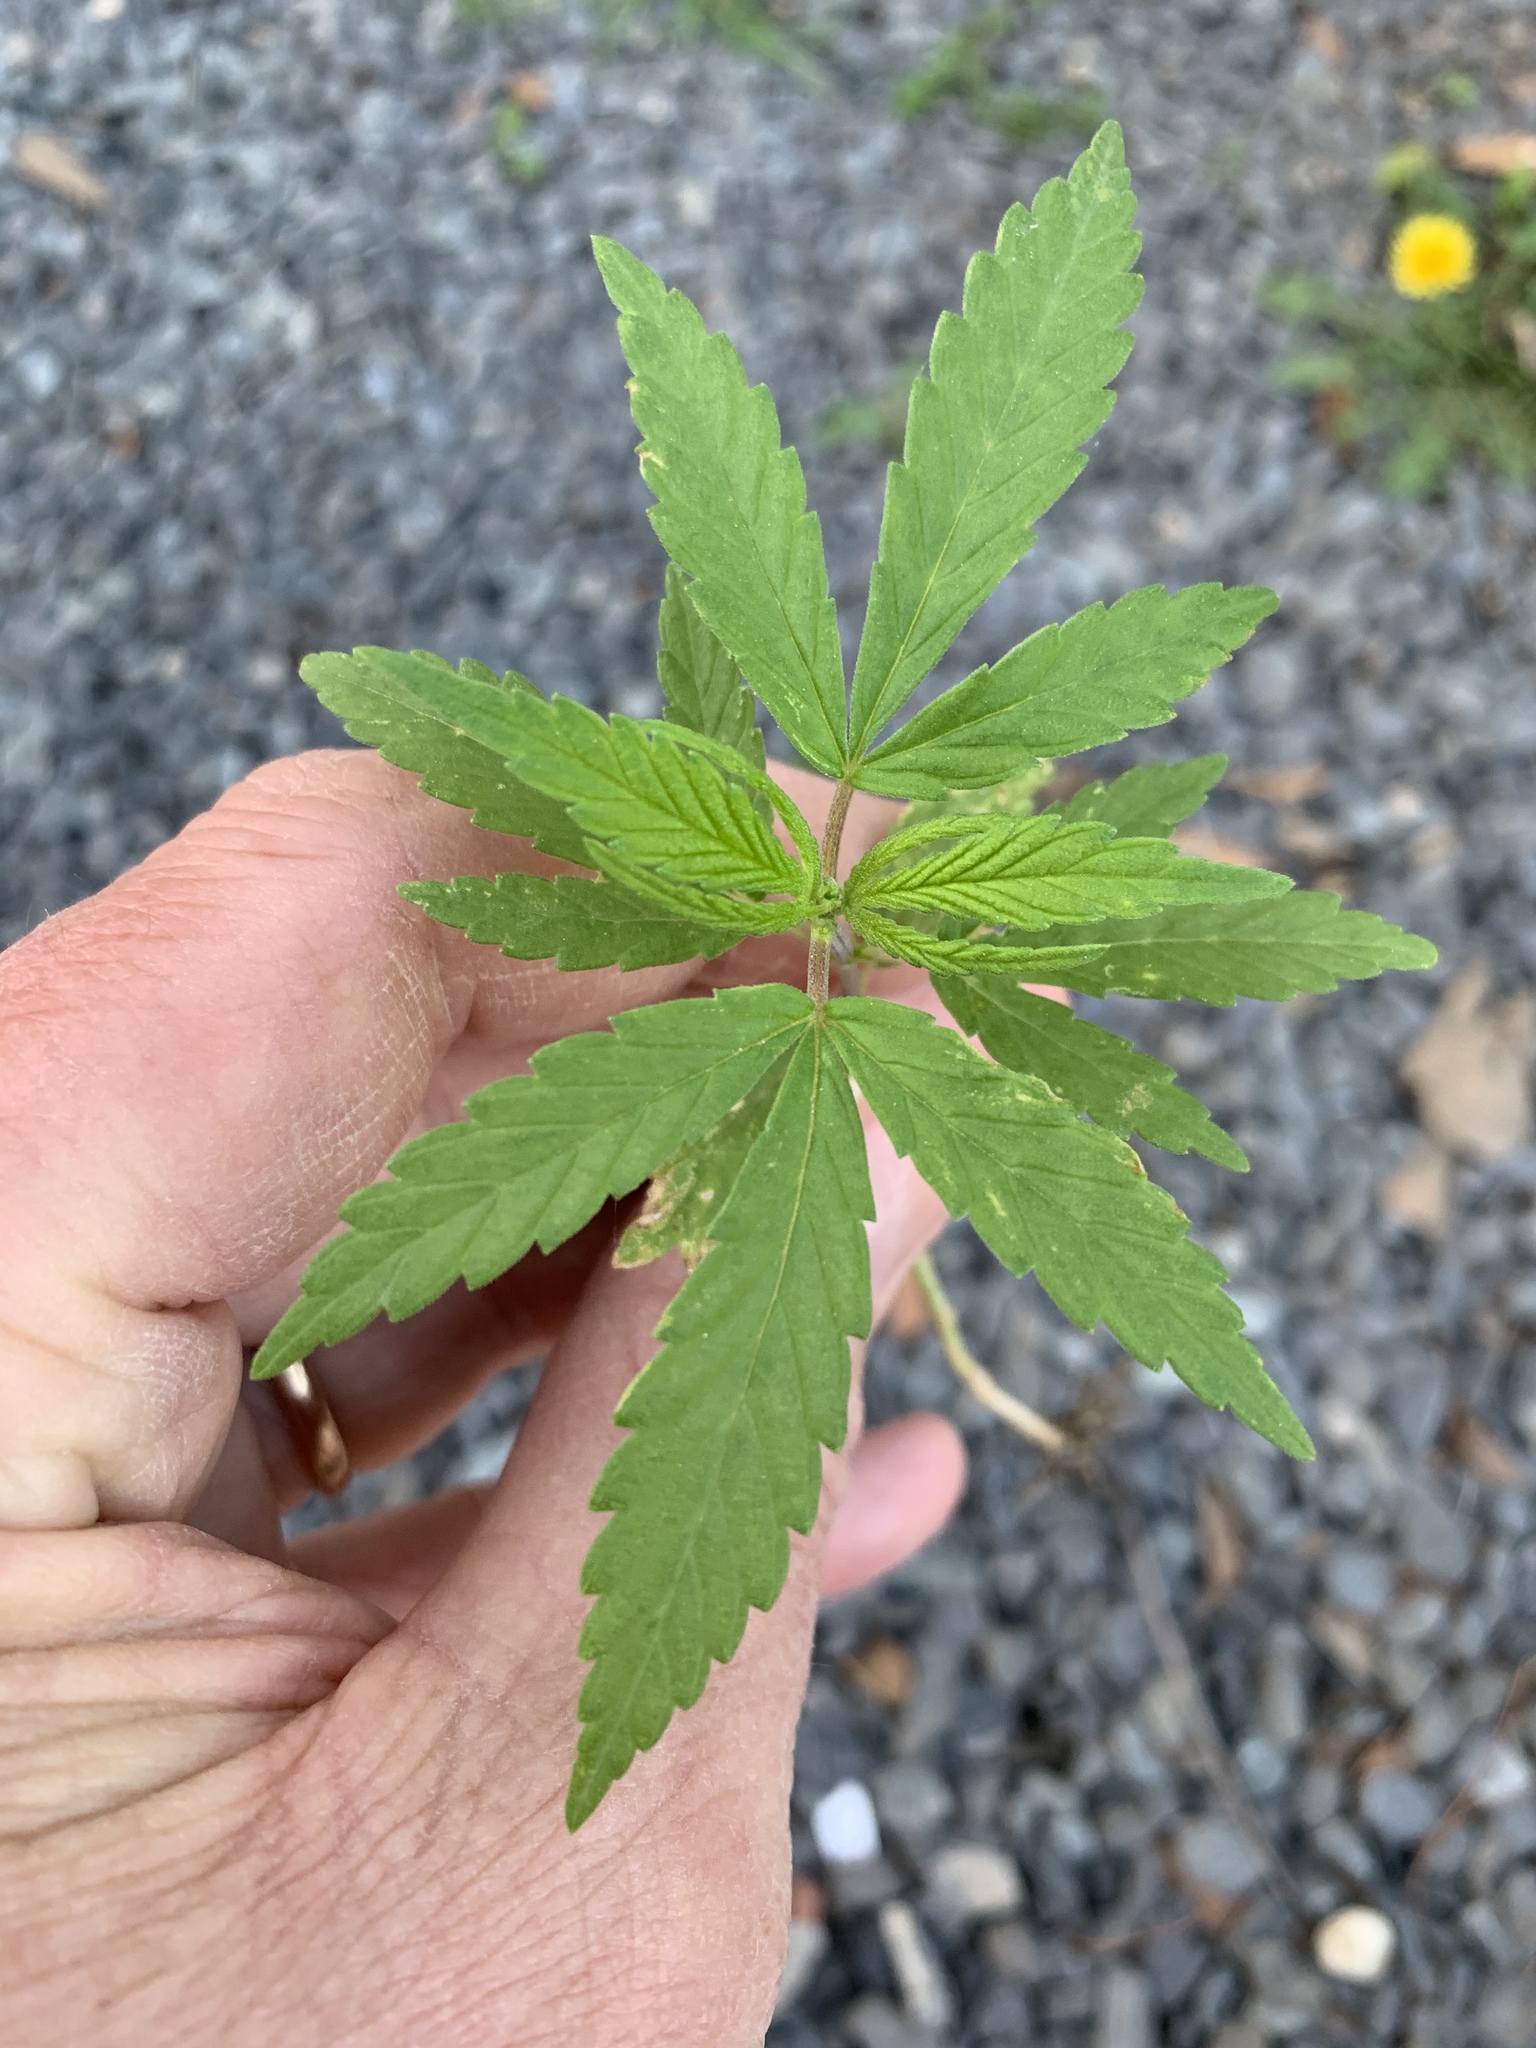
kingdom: Plantae
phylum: Tracheophyta
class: Magnoliopsida
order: Rosales
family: Cannabaceae
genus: Cannabis
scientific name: Cannabis sativa
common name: Hemp
